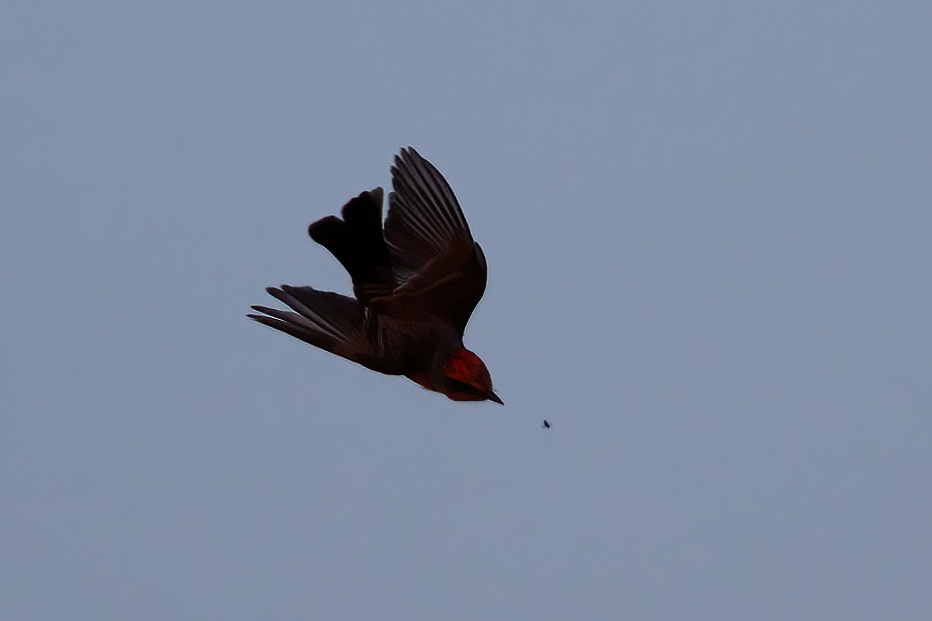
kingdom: Animalia
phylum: Chordata
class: Aves
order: Passeriformes
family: Tyrannidae
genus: Pyrocephalus
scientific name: Pyrocephalus rubinus
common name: Vermilion flycatcher
